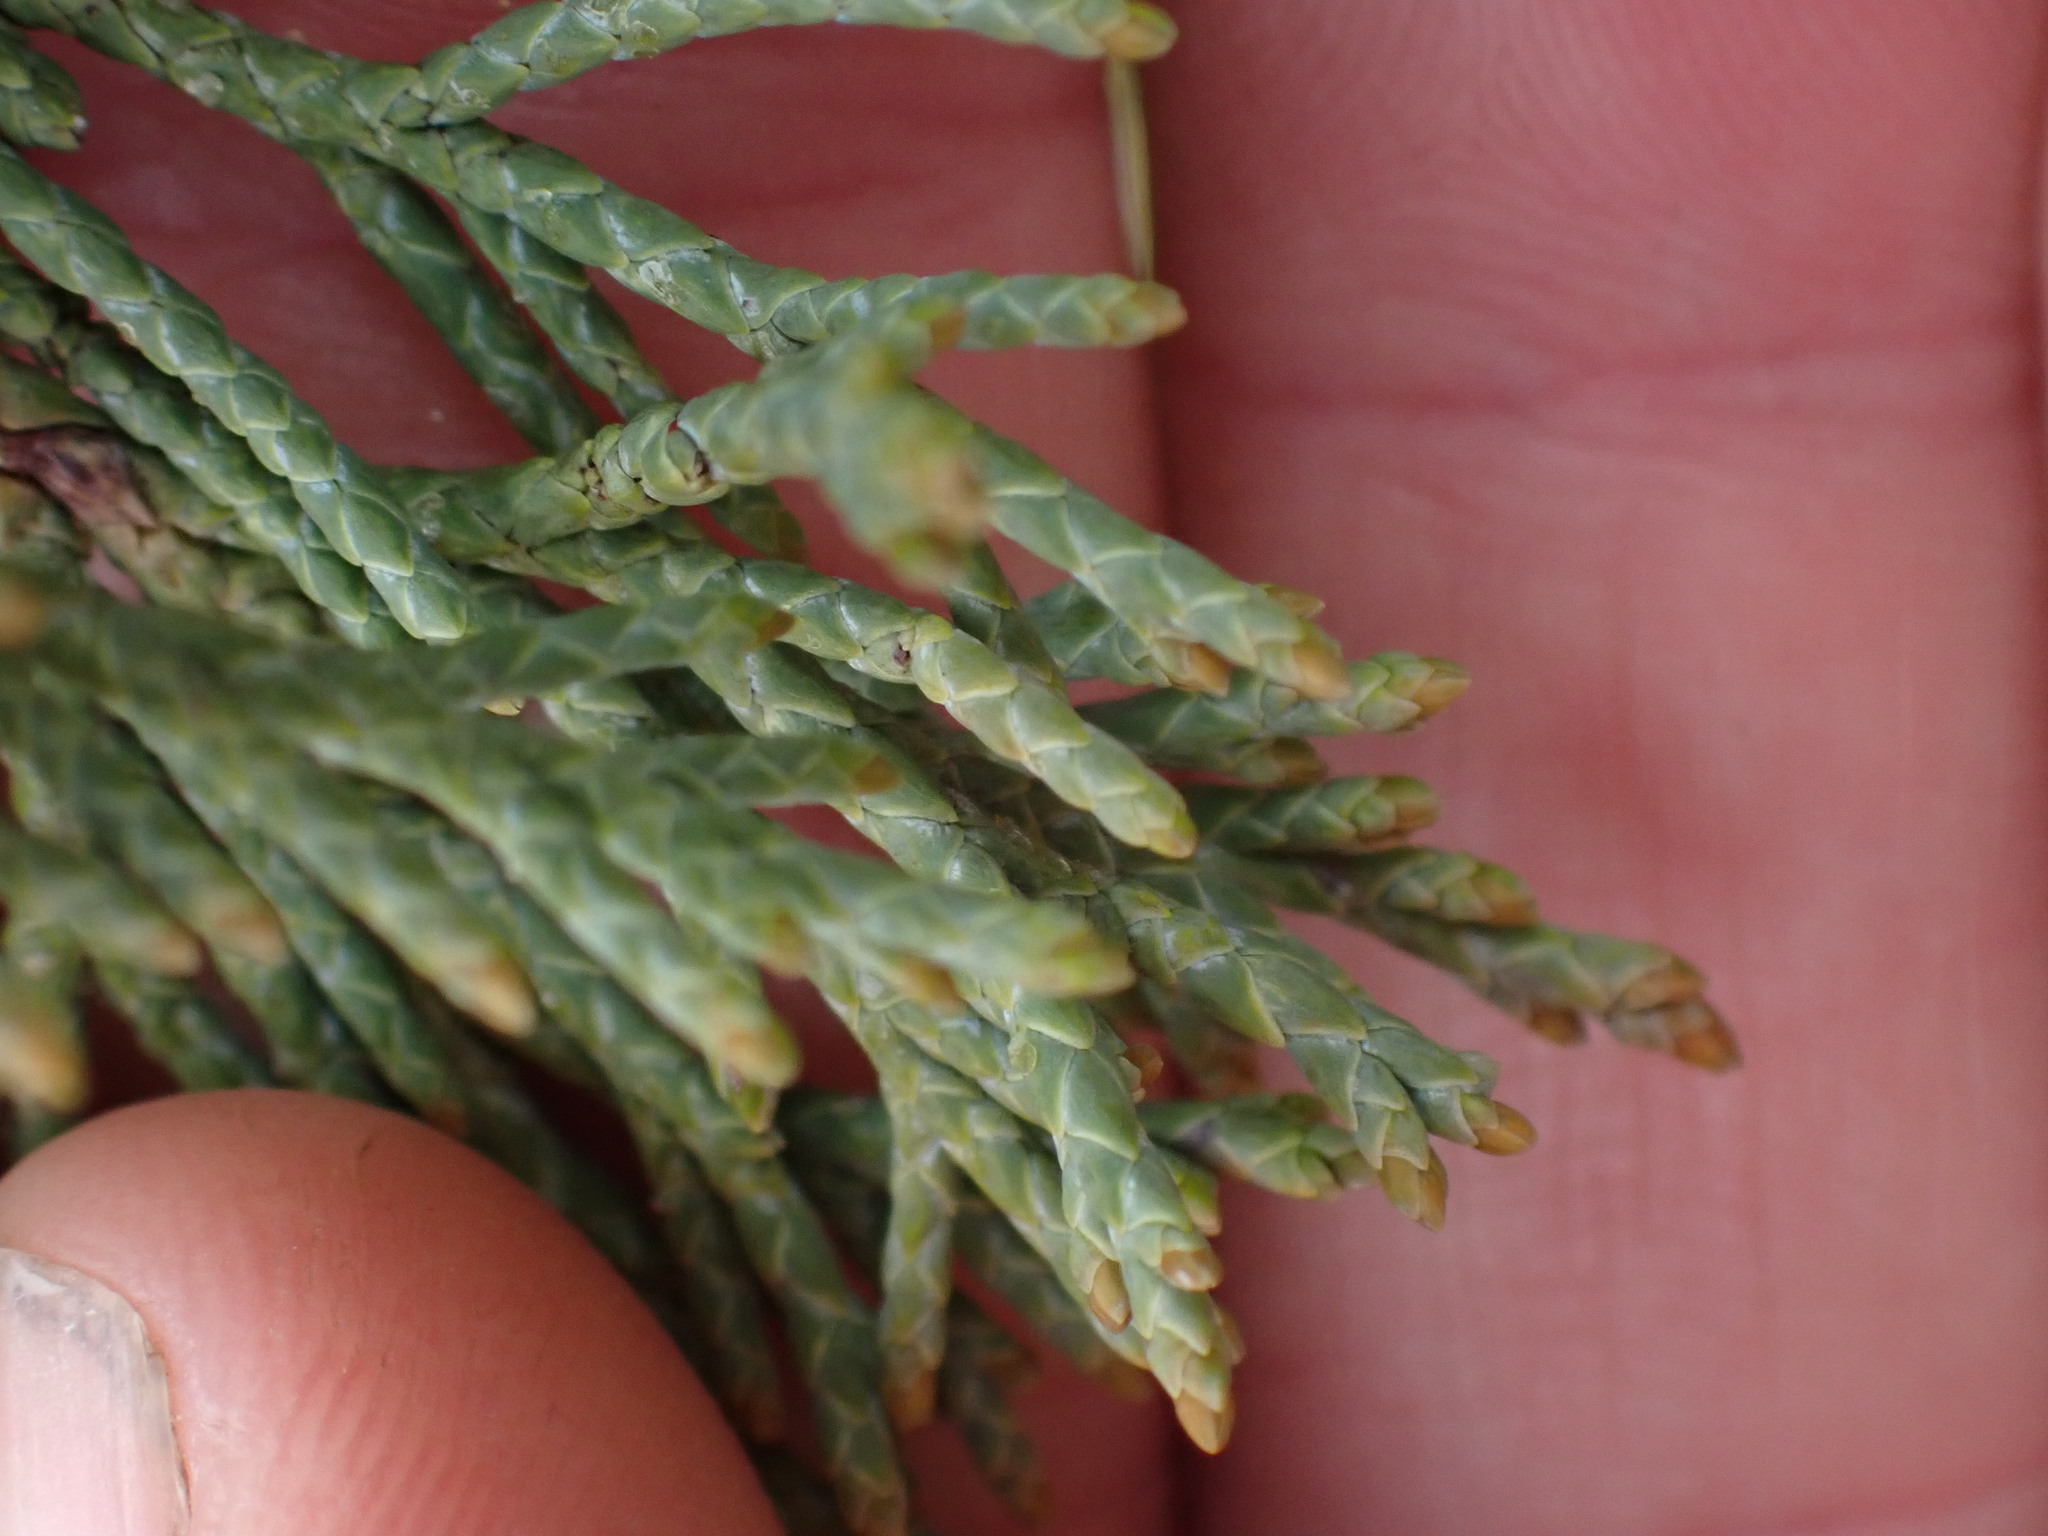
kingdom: Plantae
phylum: Tracheophyta
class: Pinopsida
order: Pinales
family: Cupressaceae
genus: Juniperus
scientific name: Juniperus scopulorum
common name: Rocky mountain juniper
